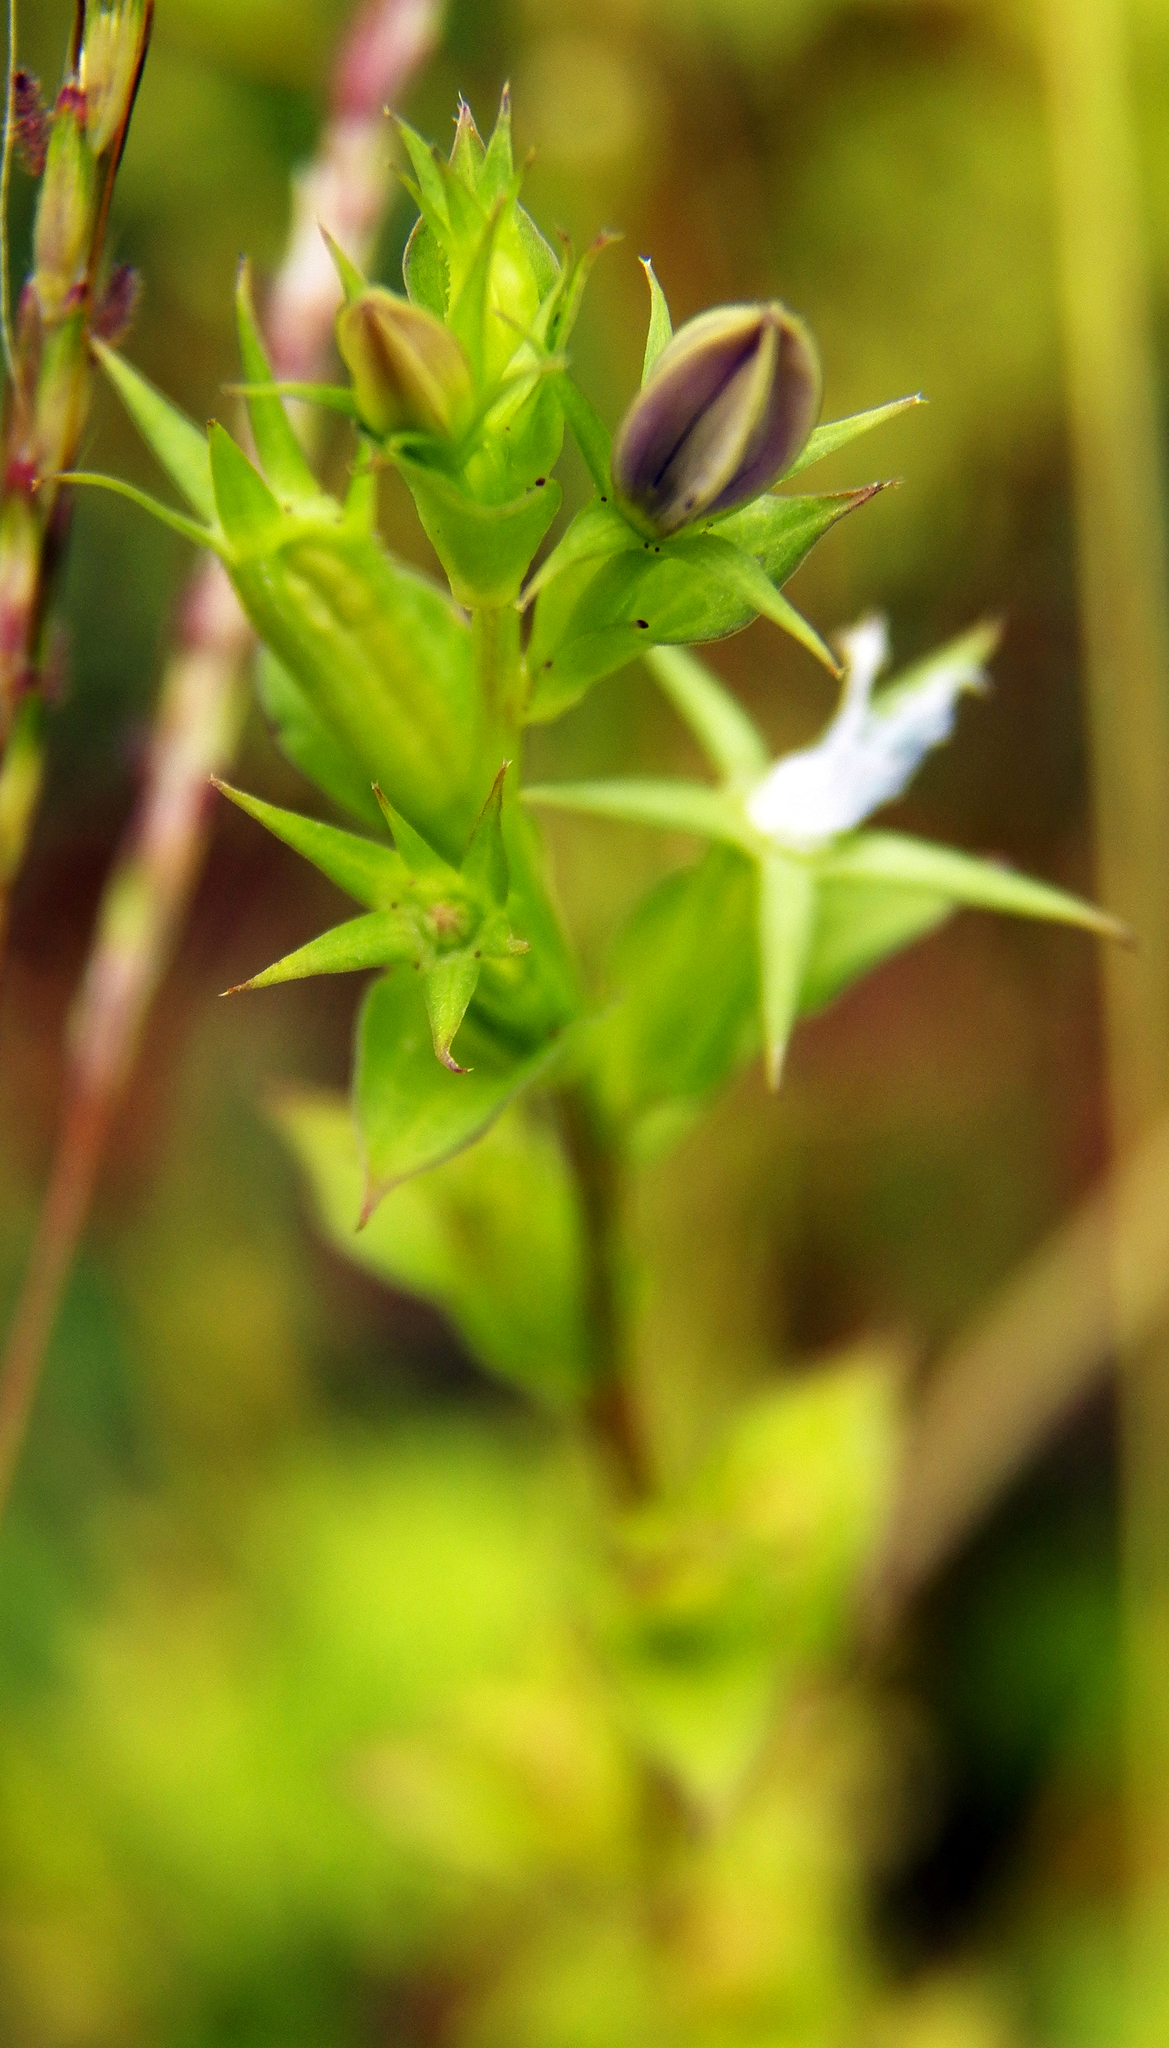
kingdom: Plantae
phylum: Tracheophyta
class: Magnoliopsida
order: Asterales
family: Campanulaceae
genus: Triodanis
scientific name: Triodanis biflora
